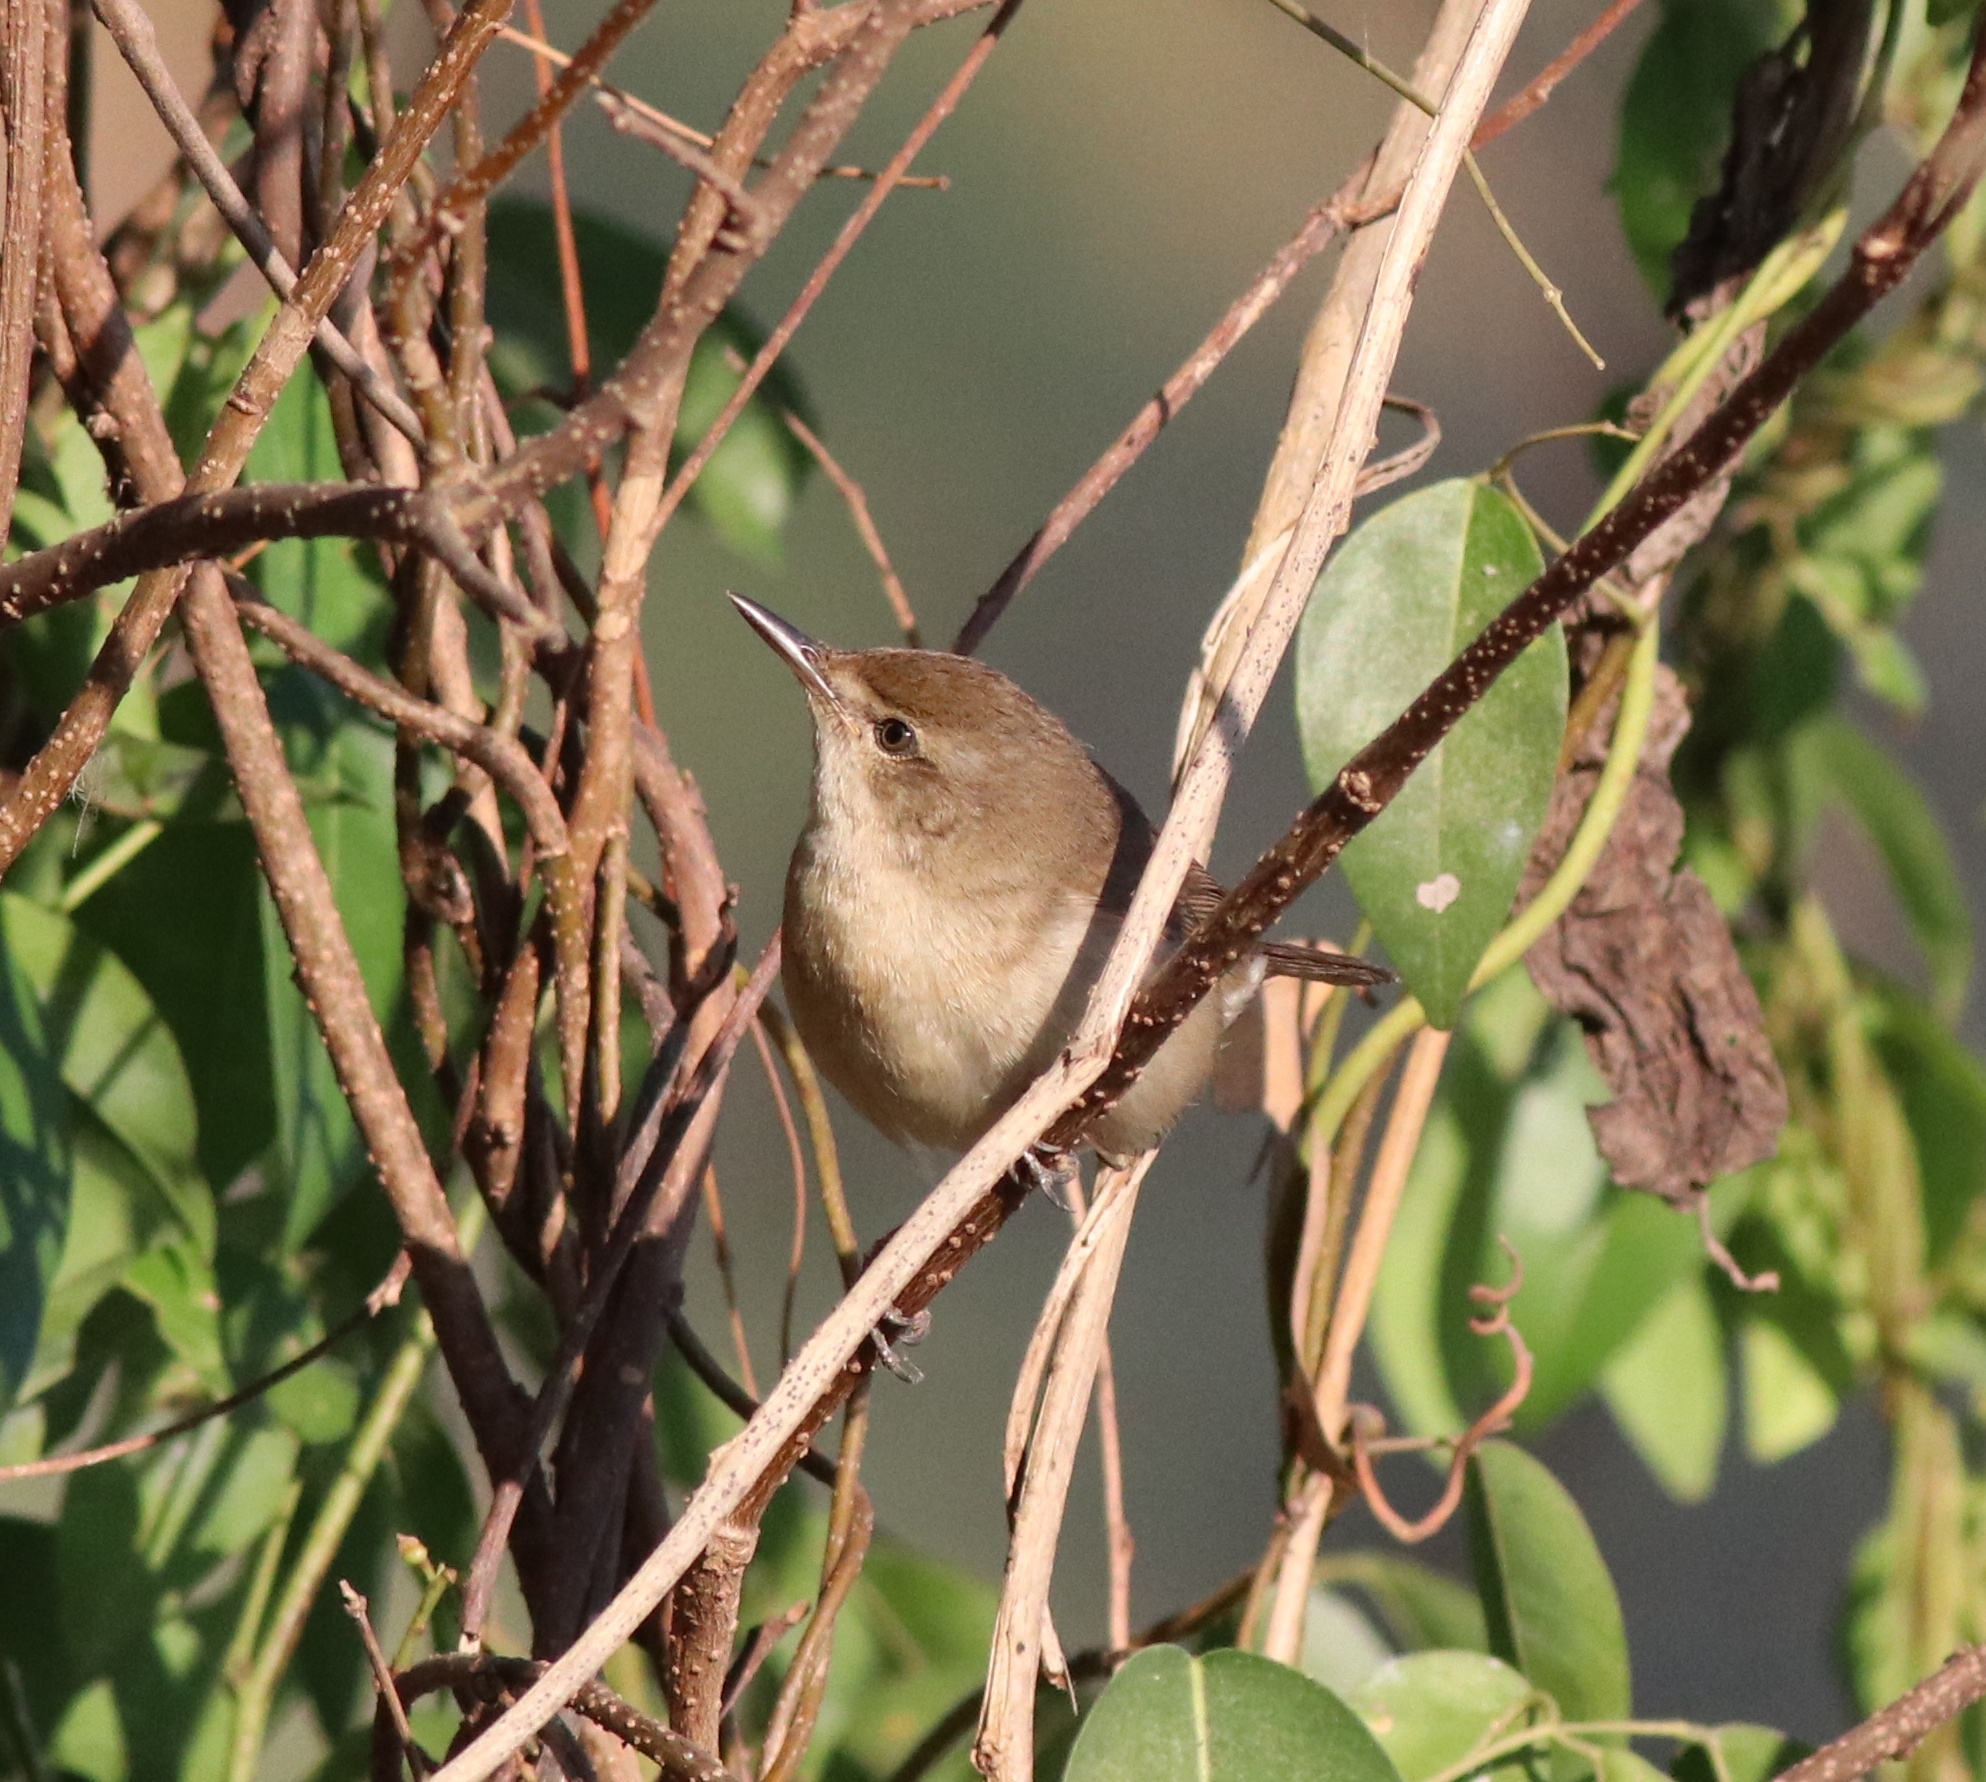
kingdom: Animalia
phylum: Chordata
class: Aves
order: Passeriformes
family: Acrocephalidae
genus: Acrocephalus
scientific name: Acrocephalus dumetorum
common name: Blyth's reed warbler
